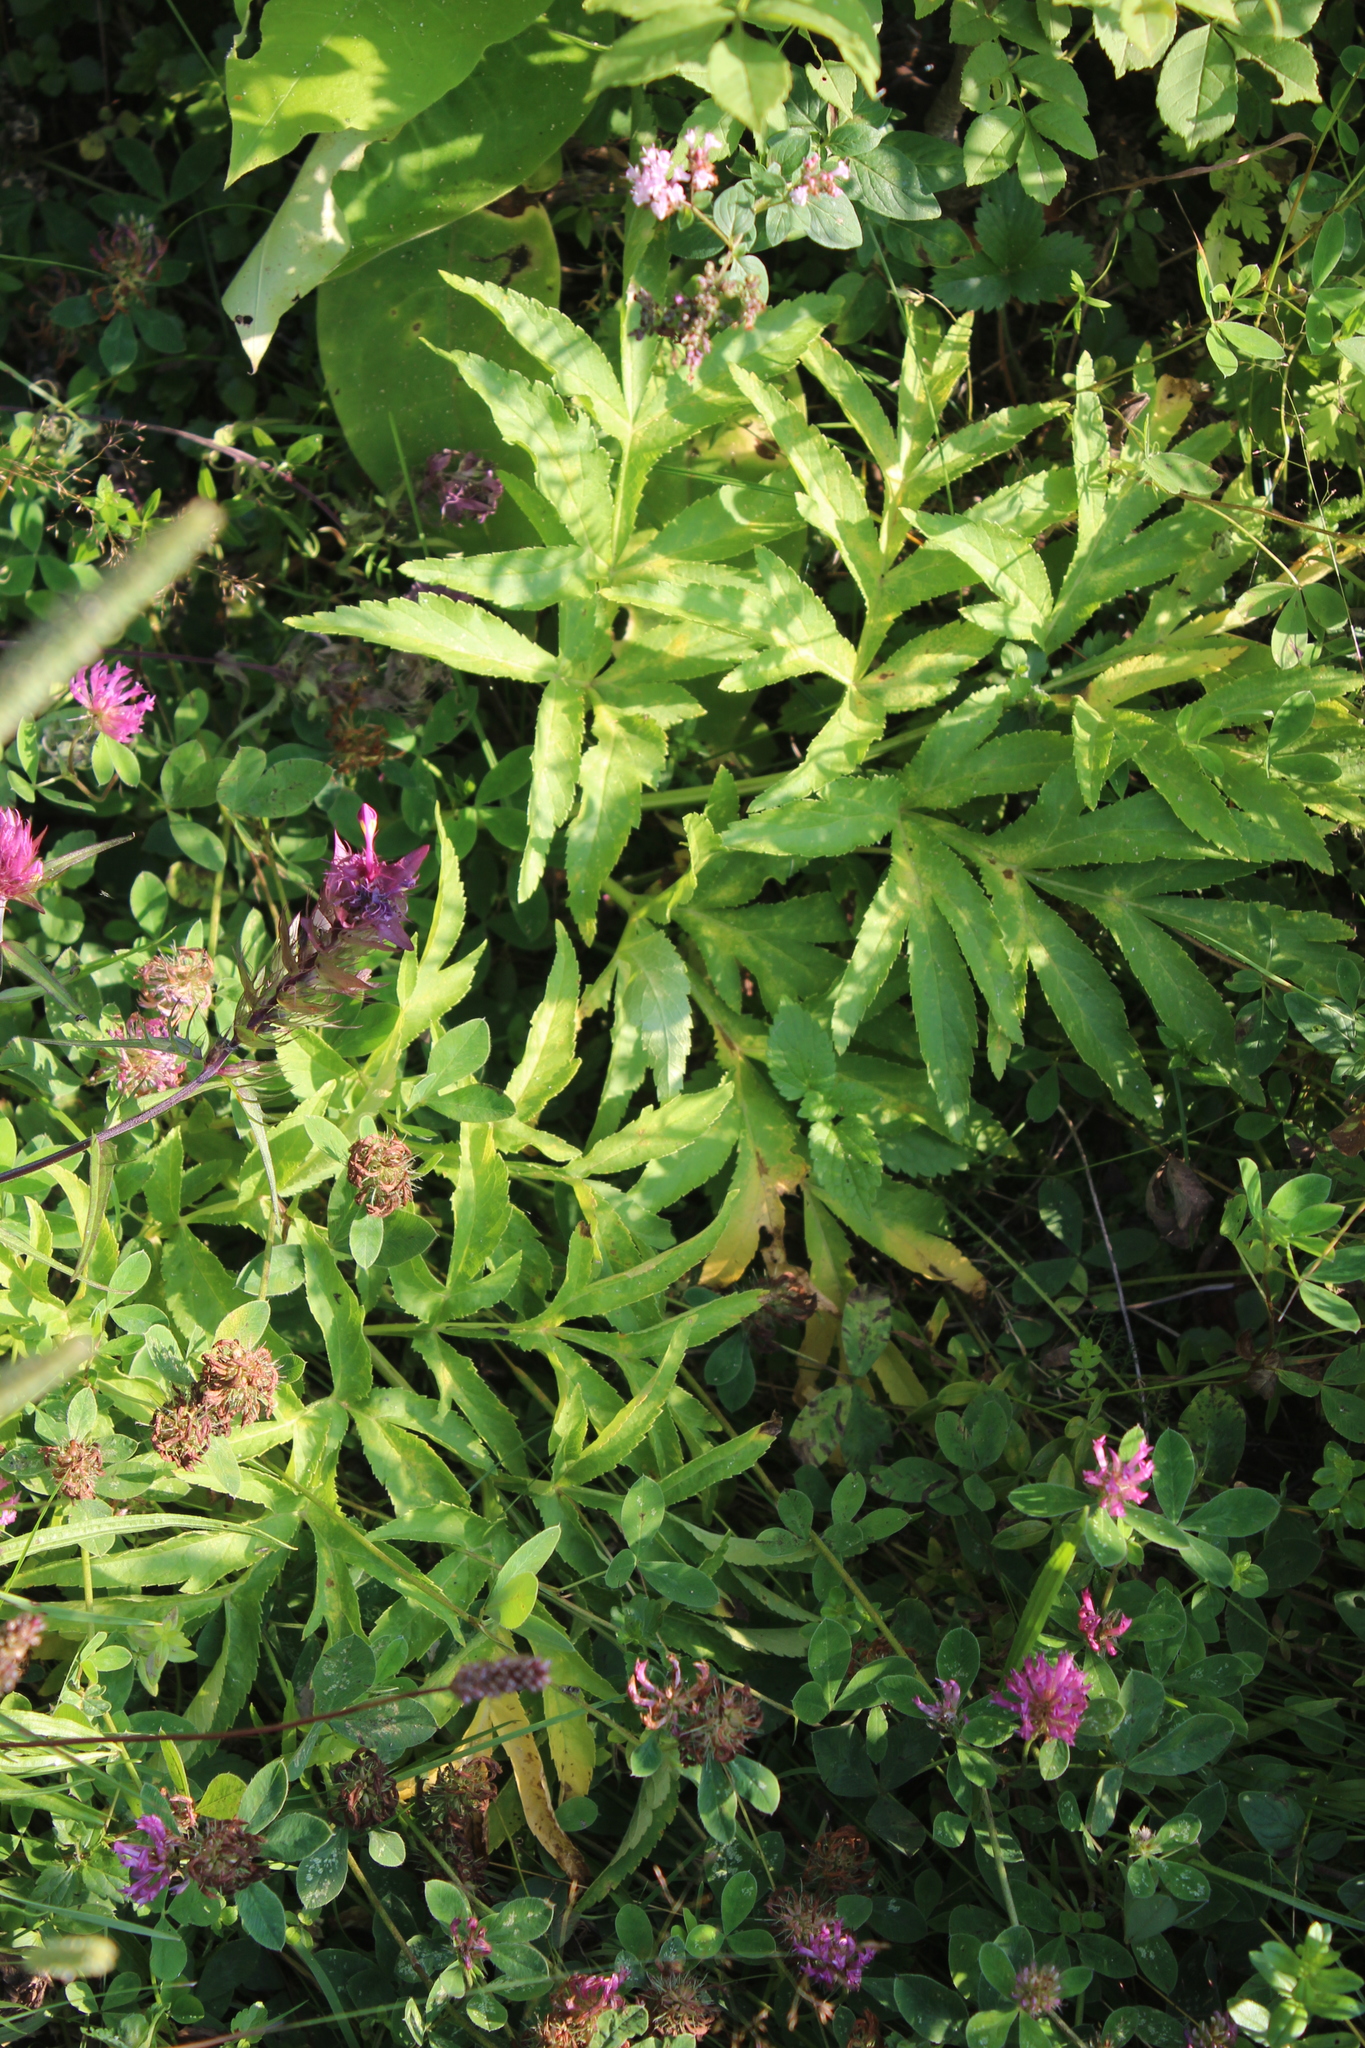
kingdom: Plantae
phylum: Tracheophyta
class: Magnoliopsida
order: Apiales
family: Apiaceae
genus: Agasyllis
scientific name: Agasyllis latifolia
